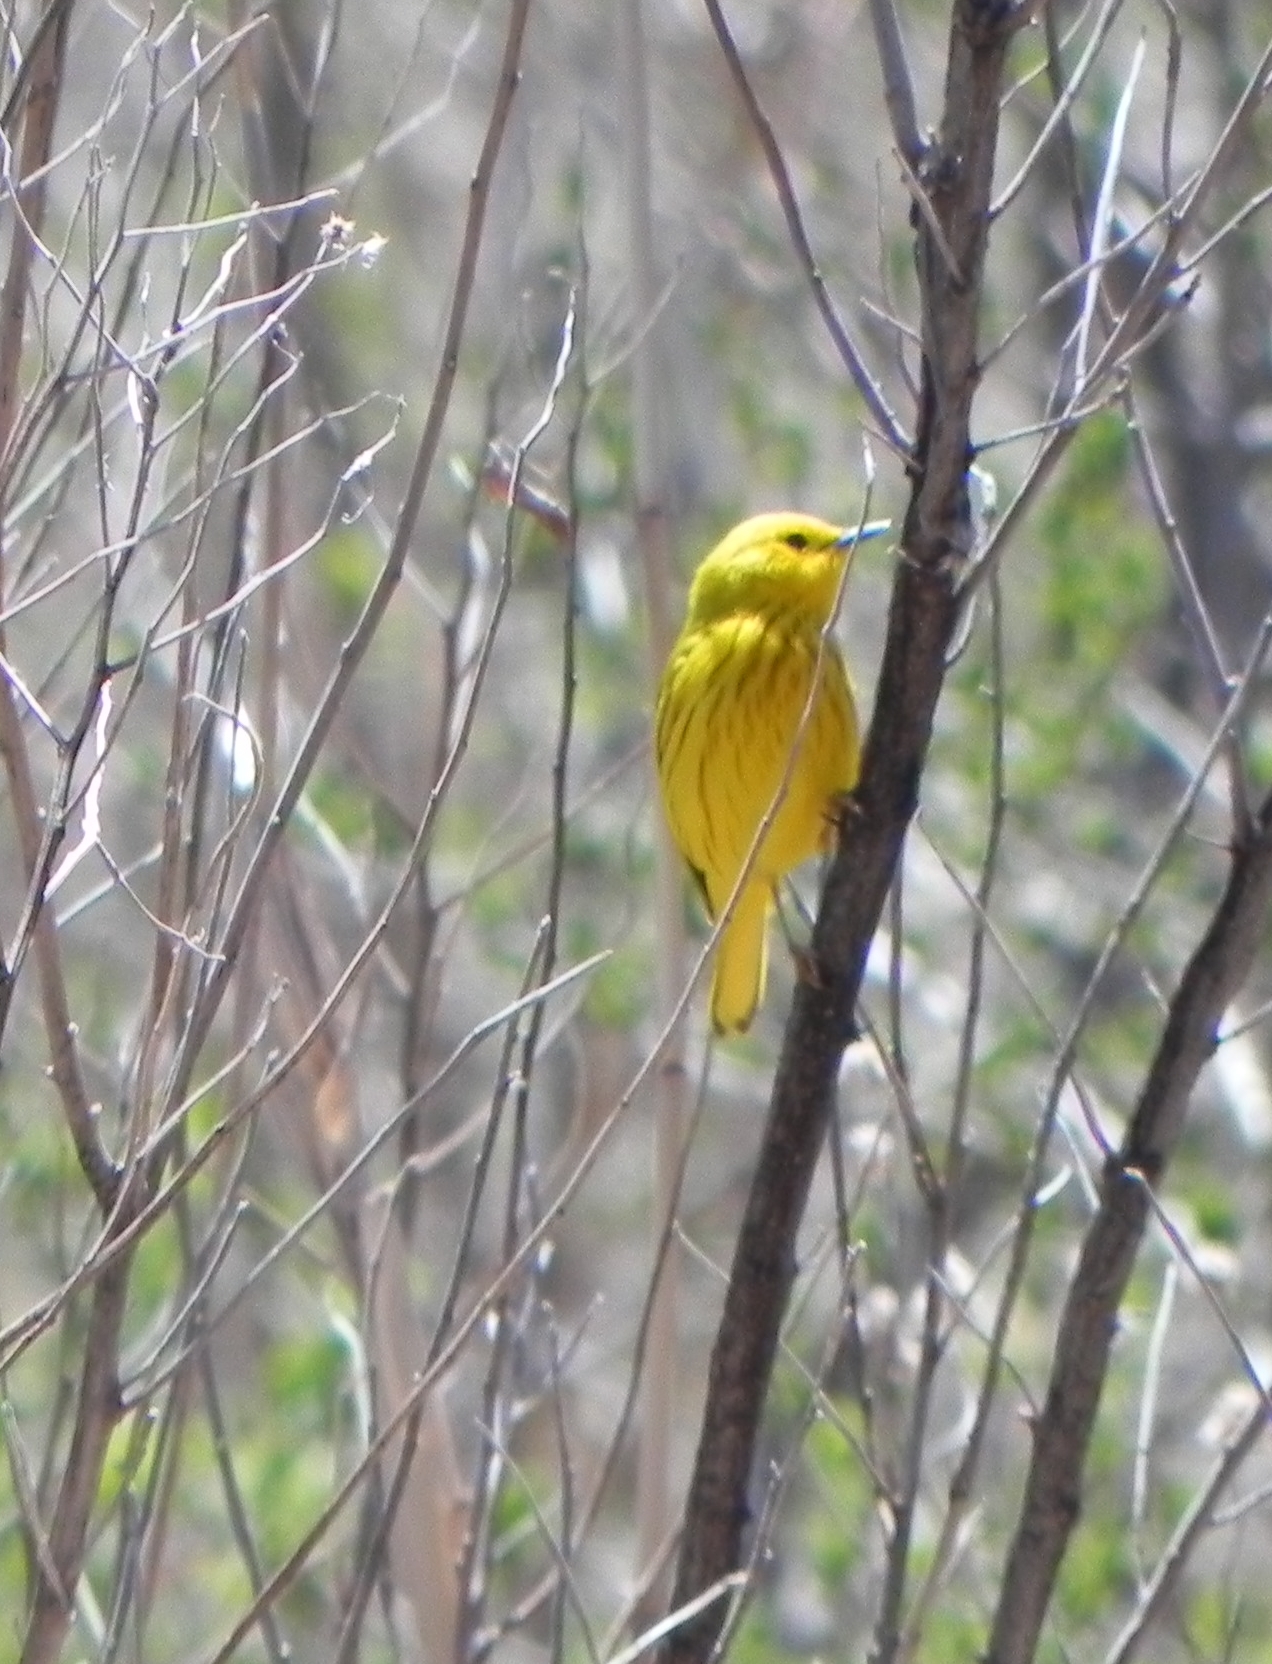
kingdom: Animalia
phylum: Chordata
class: Aves
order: Passeriformes
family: Parulidae
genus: Setophaga
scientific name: Setophaga petechia
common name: Yellow warbler
